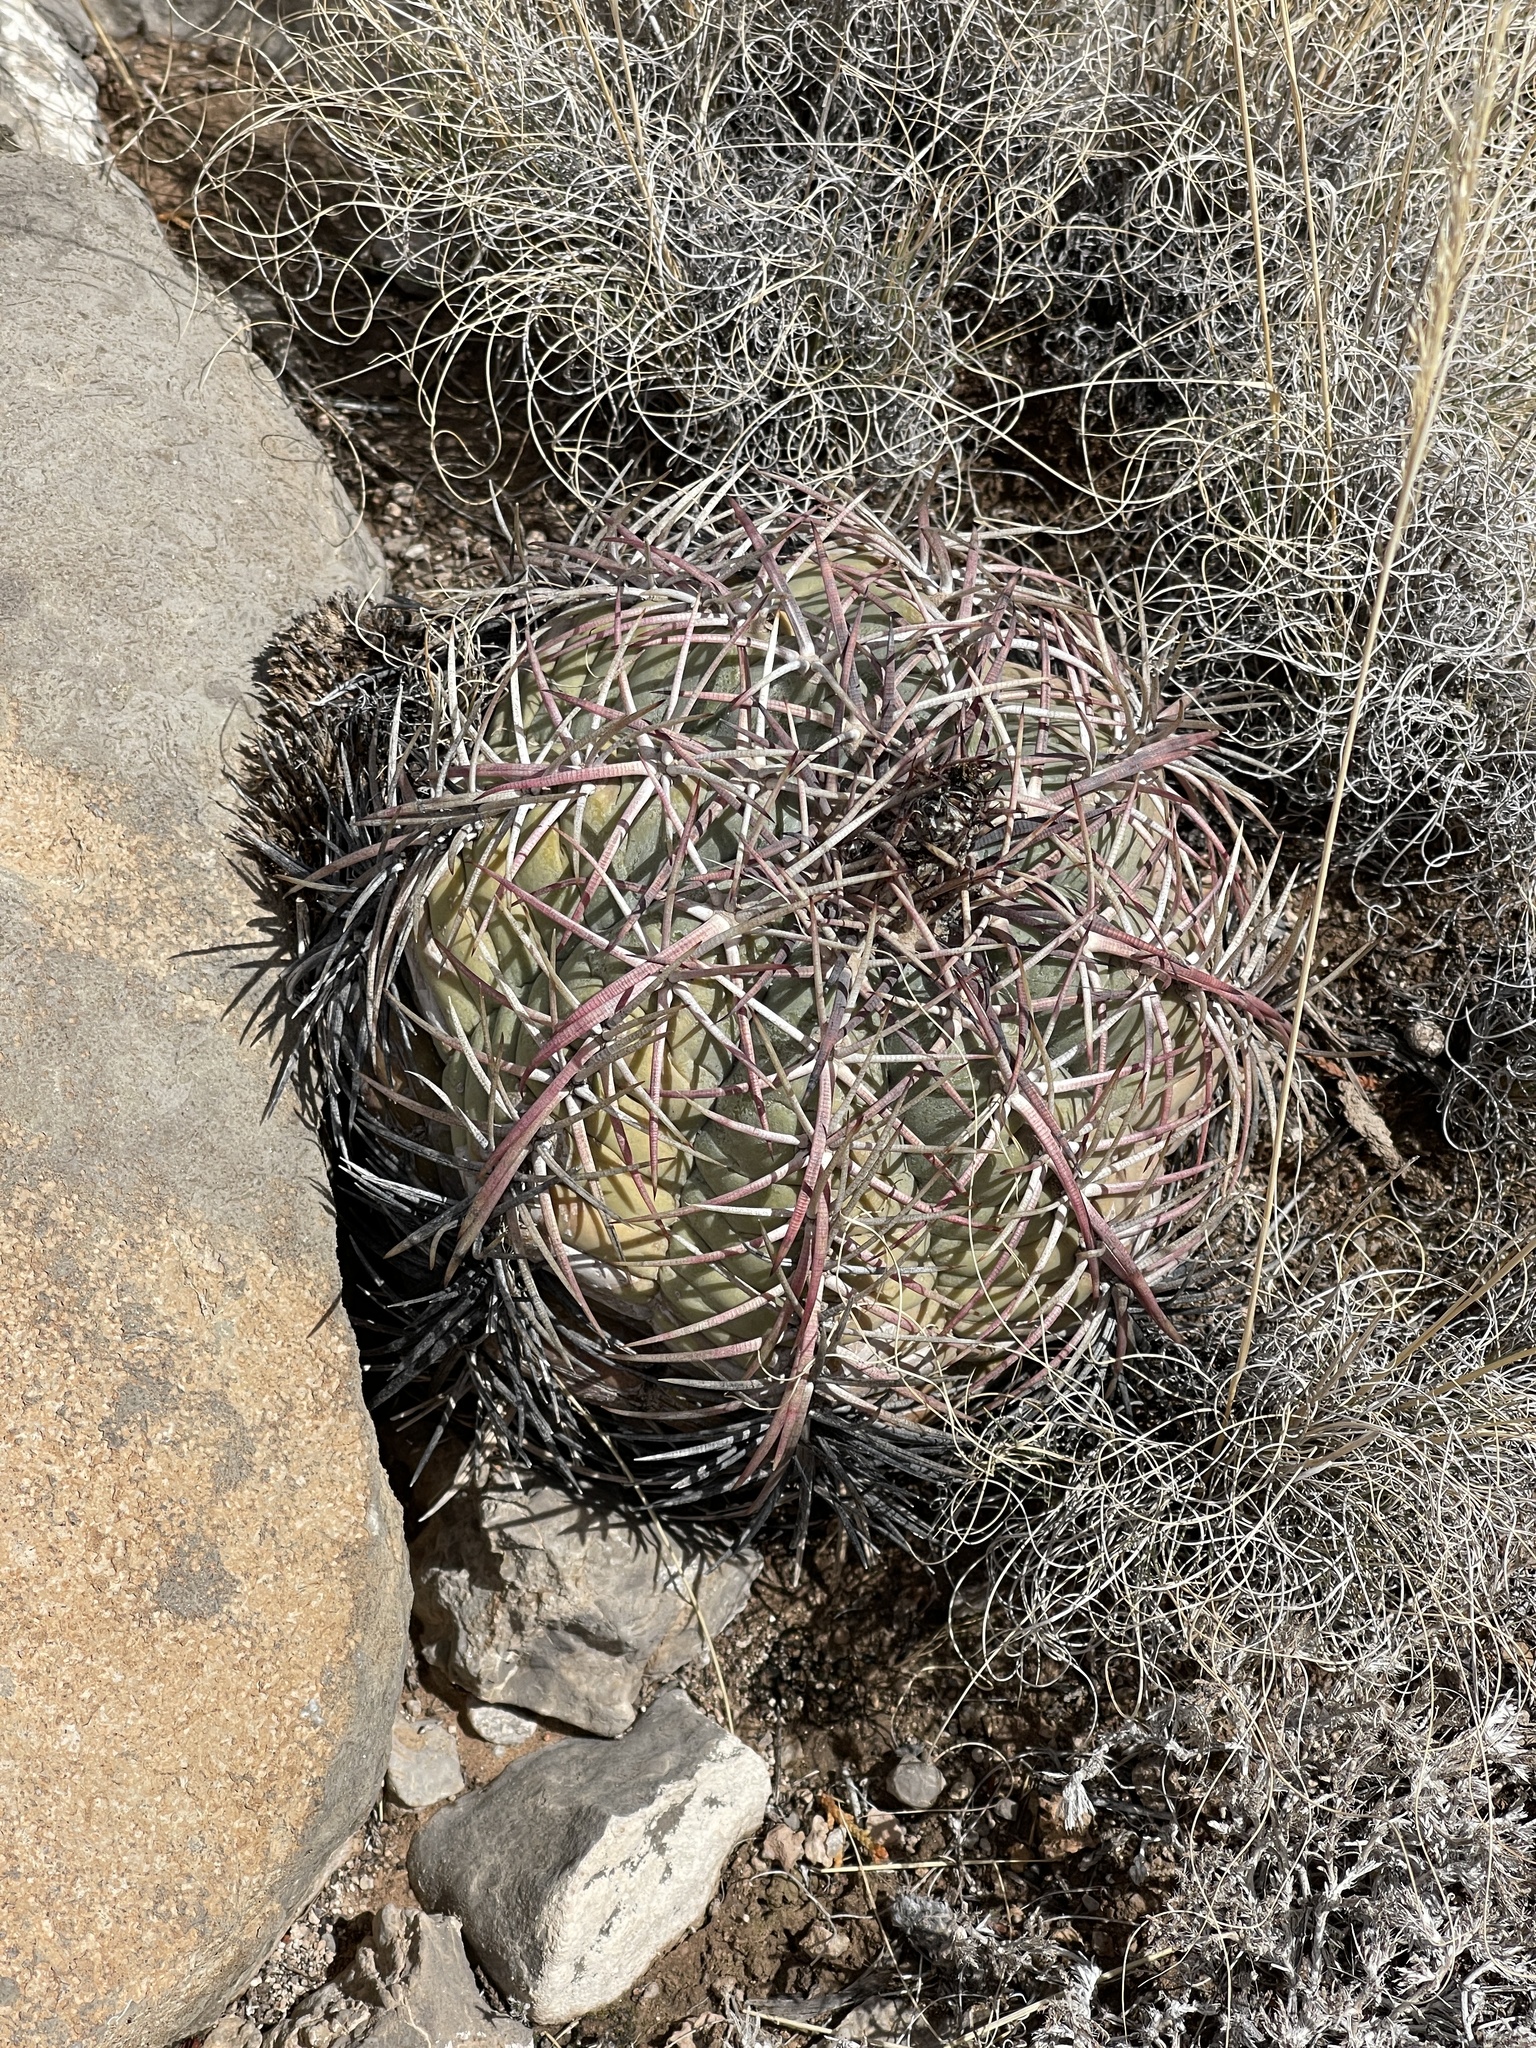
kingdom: Plantae
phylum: Tracheophyta
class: Magnoliopsida
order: Caryophyllales
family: Cactaceae
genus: Echinocactus
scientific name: Echinocactus horizonthalonius
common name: Devilshead
